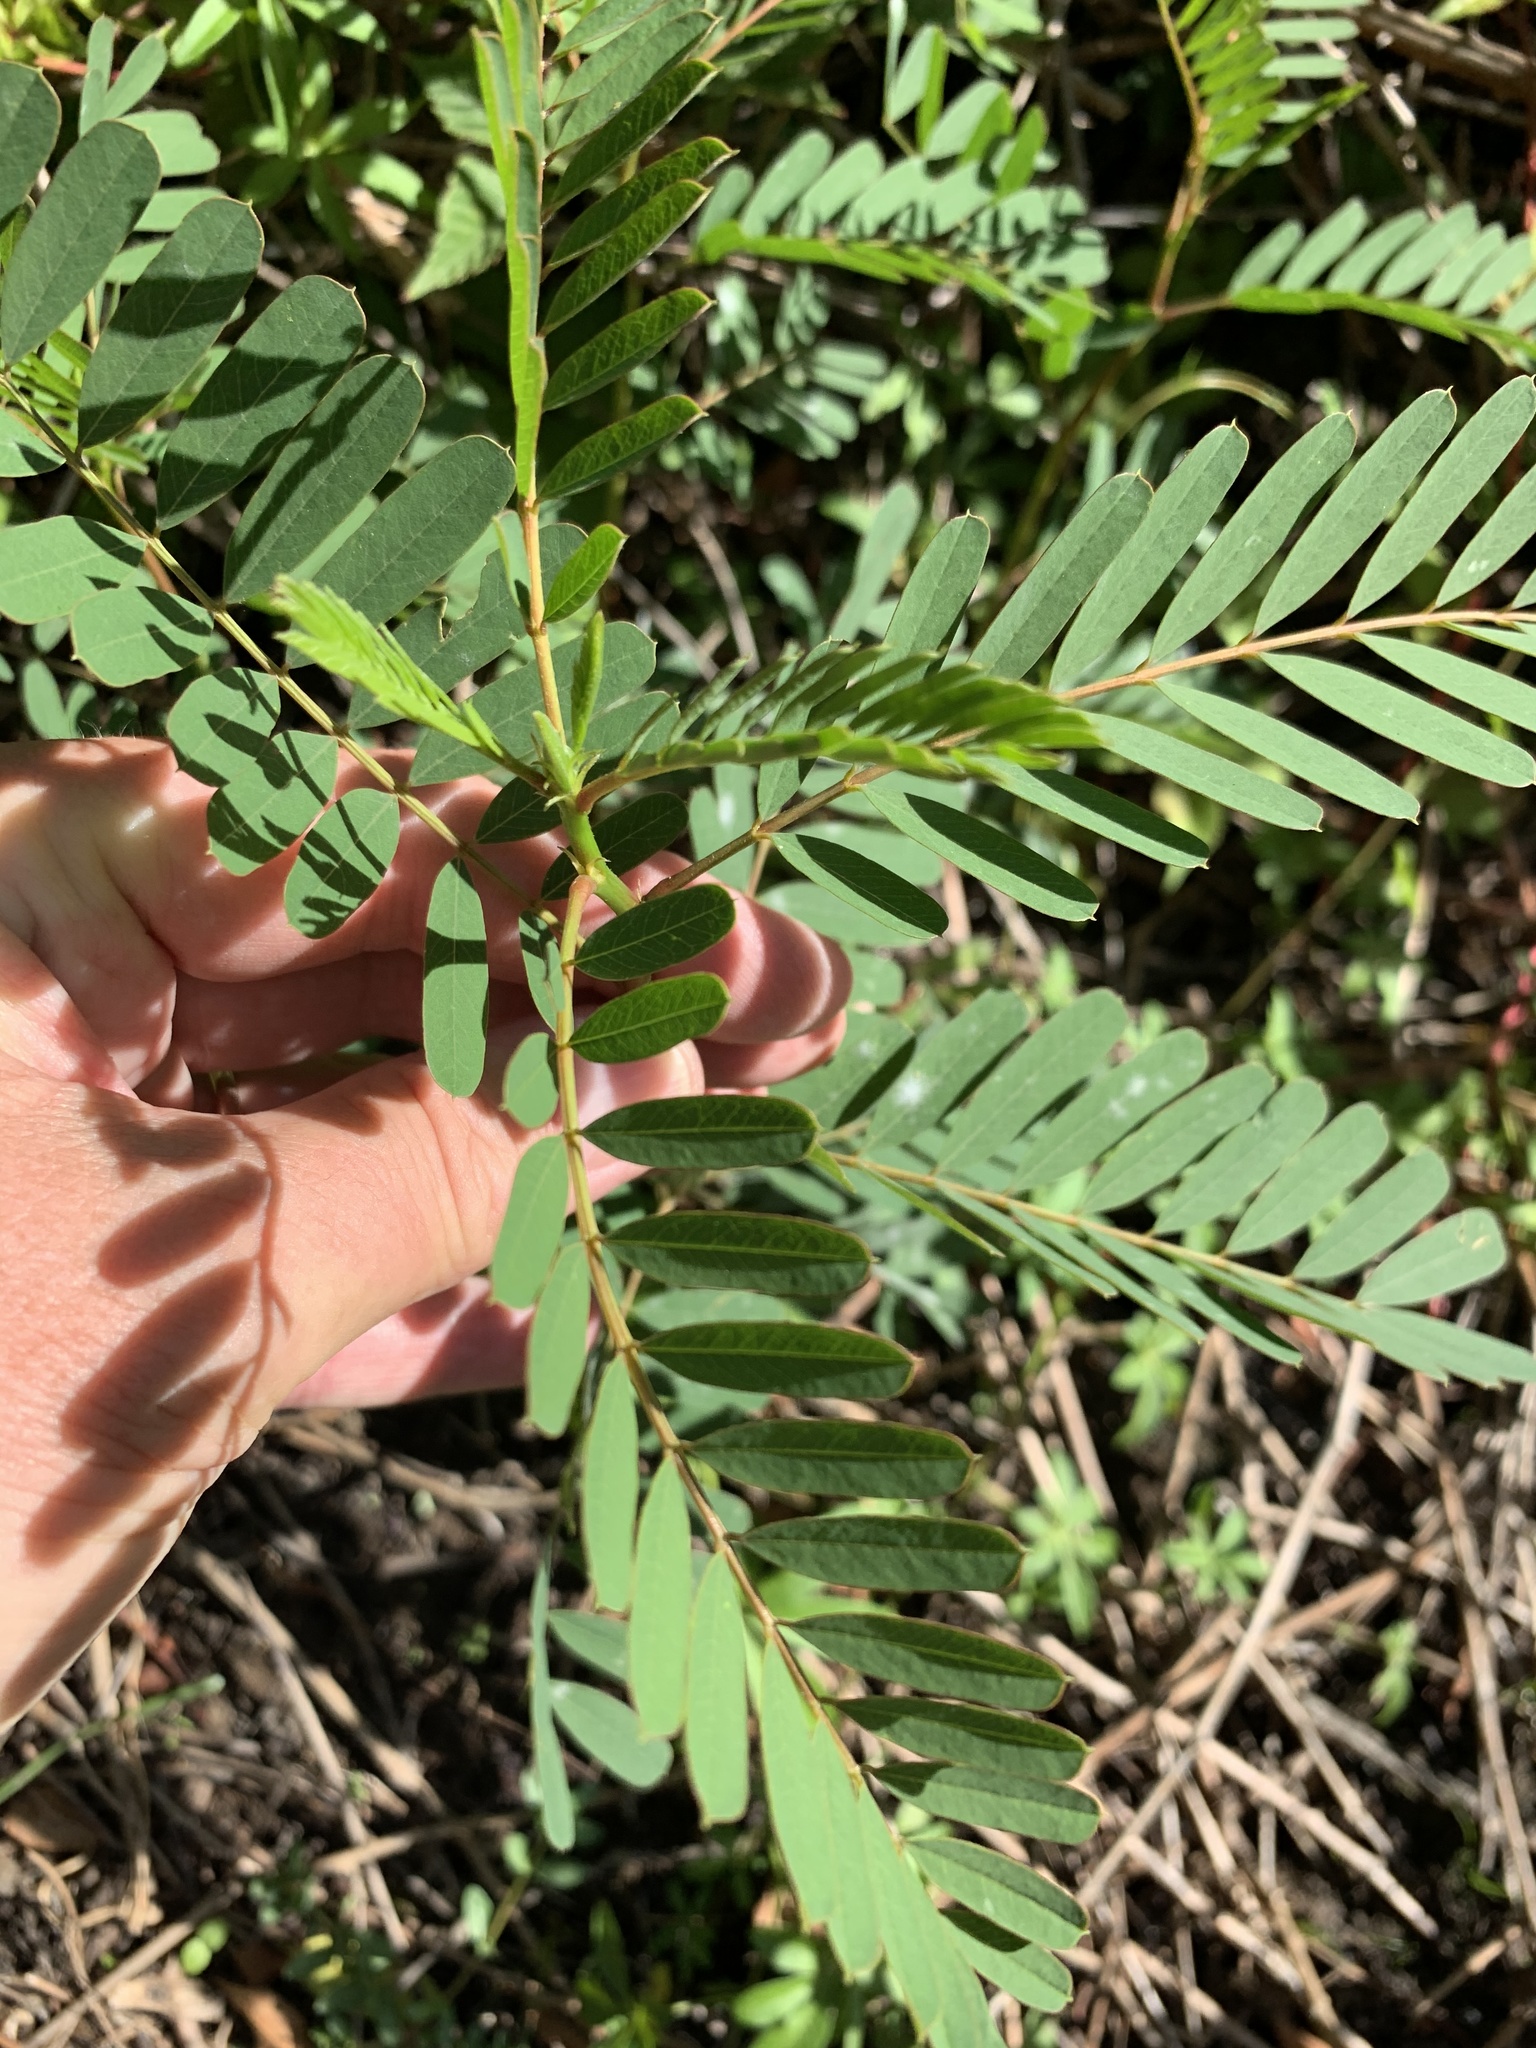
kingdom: Plantae
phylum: Tracheophyta
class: Magnoliopsida
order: Fabales
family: Fabaceae
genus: Robinia
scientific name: Robinia pseudoacacia
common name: Black locust
